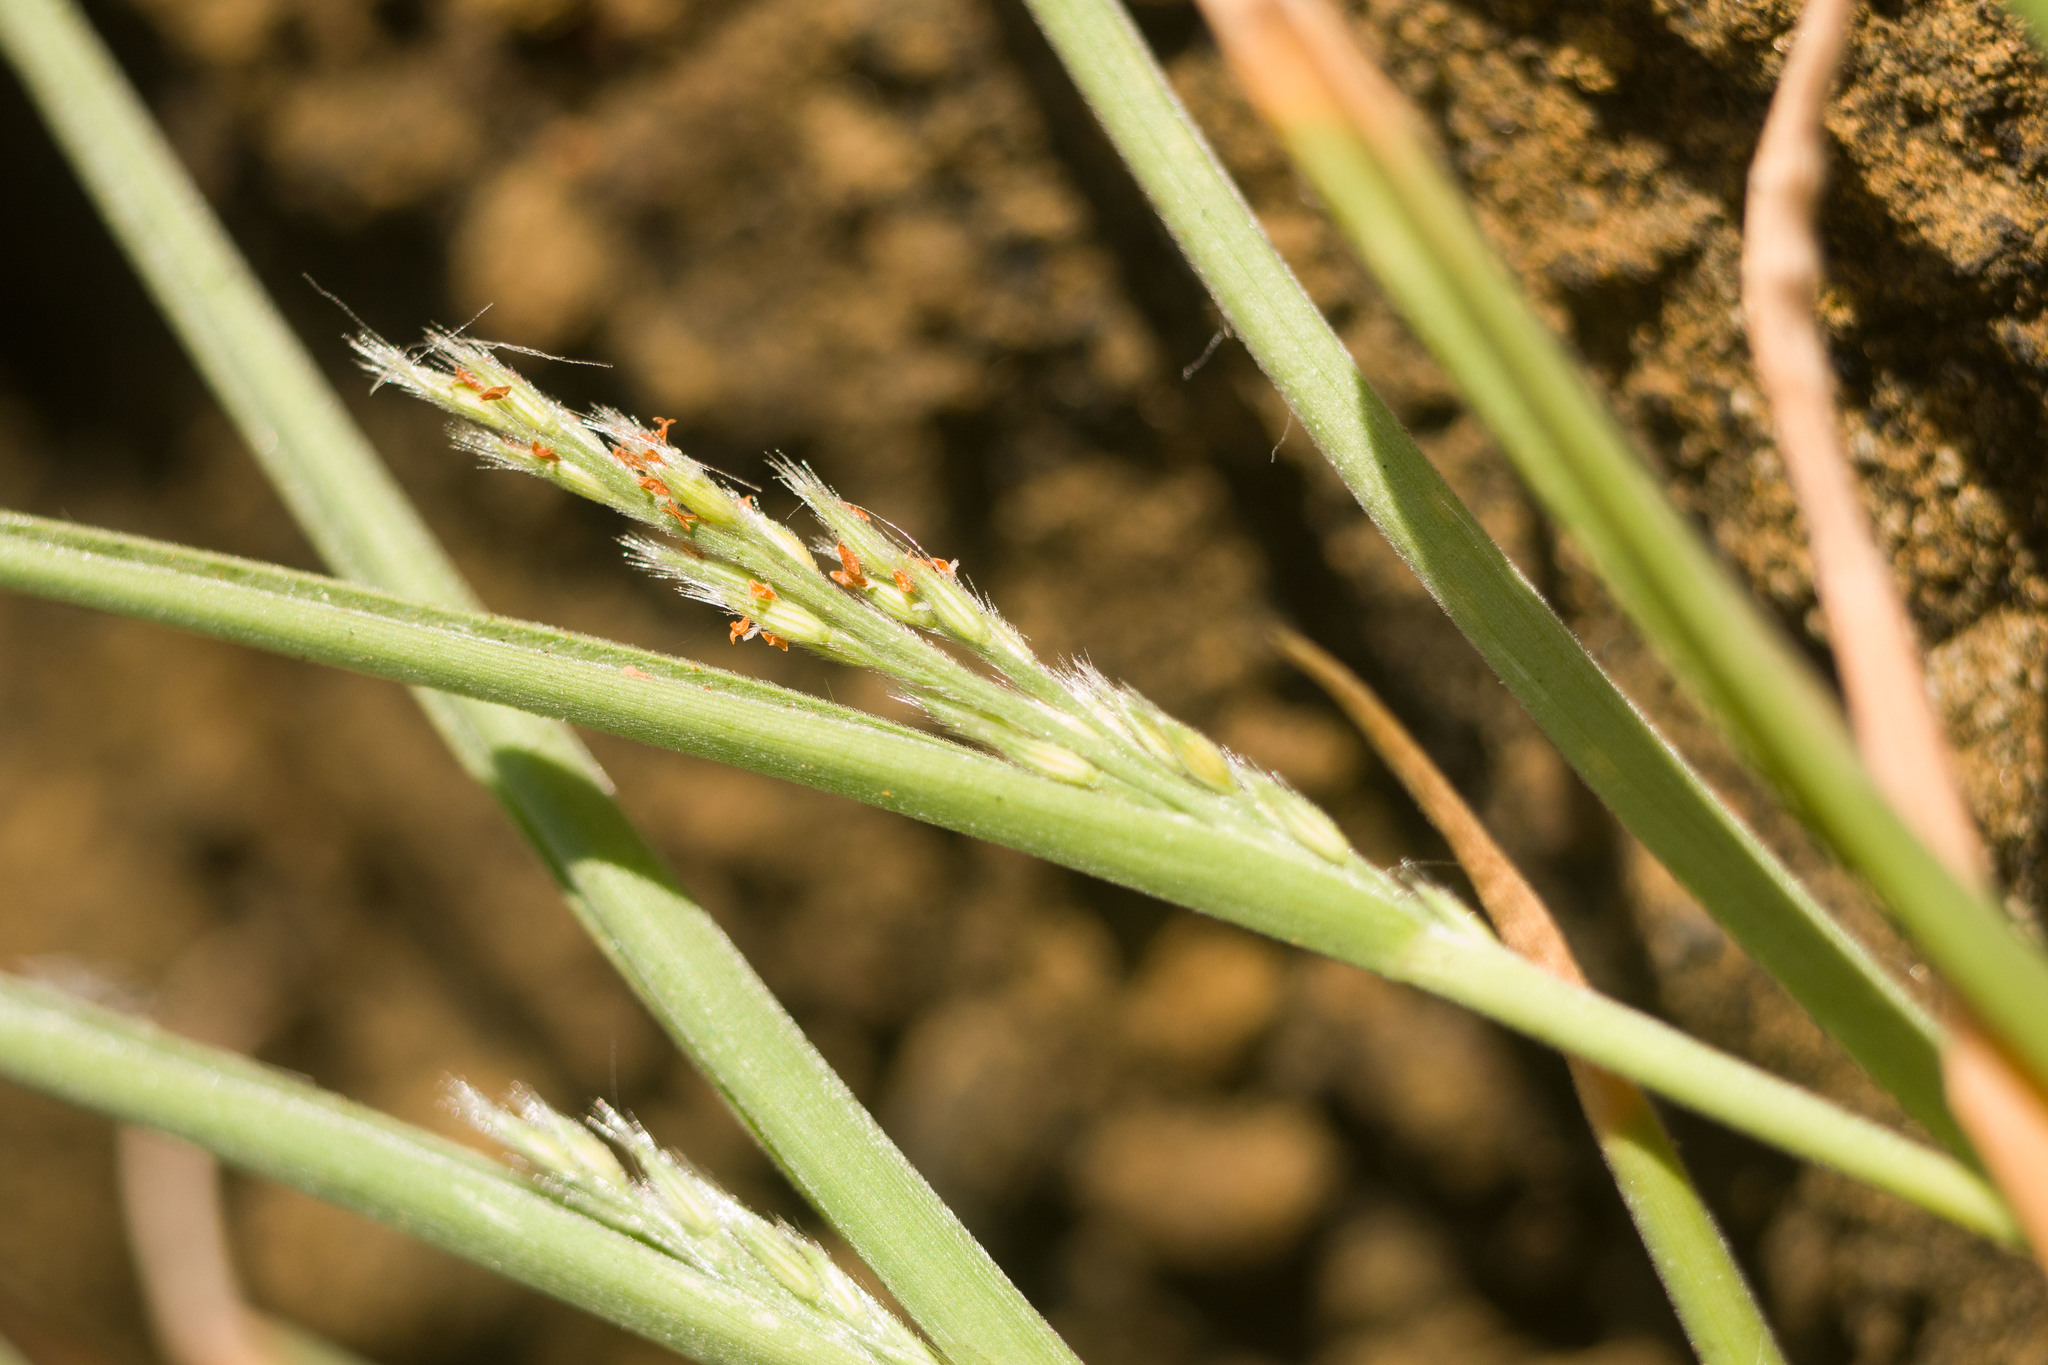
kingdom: Plantae
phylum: Tracheophyta
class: Liliopsida
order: Poales
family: Poaceae
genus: Panicum
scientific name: Panicum fauriei
